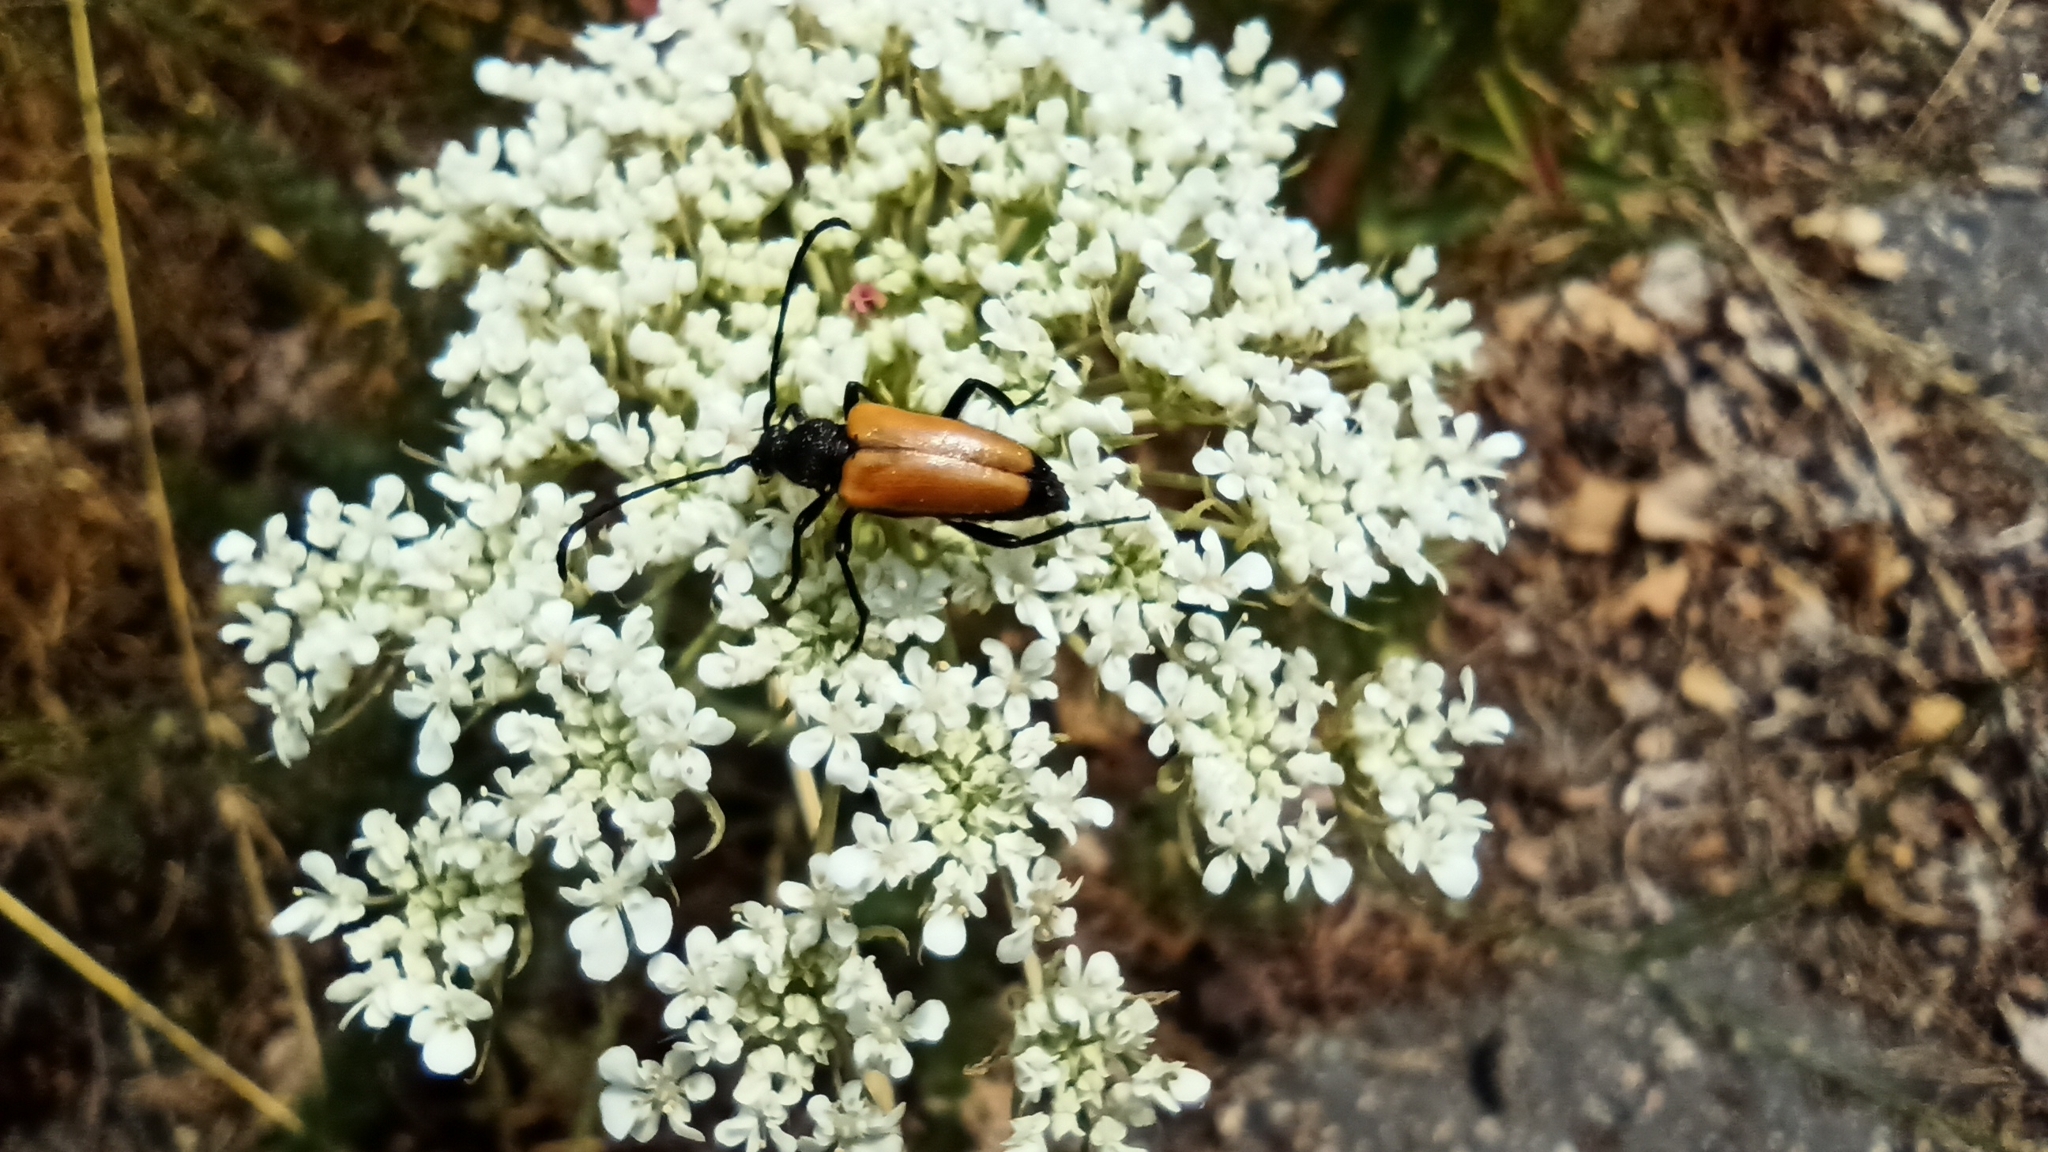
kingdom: Animalia
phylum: Arthropoda
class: Insecta
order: Coleoptera
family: Cerambycidae
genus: Paracorymbia
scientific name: Paracorymbia fulva
